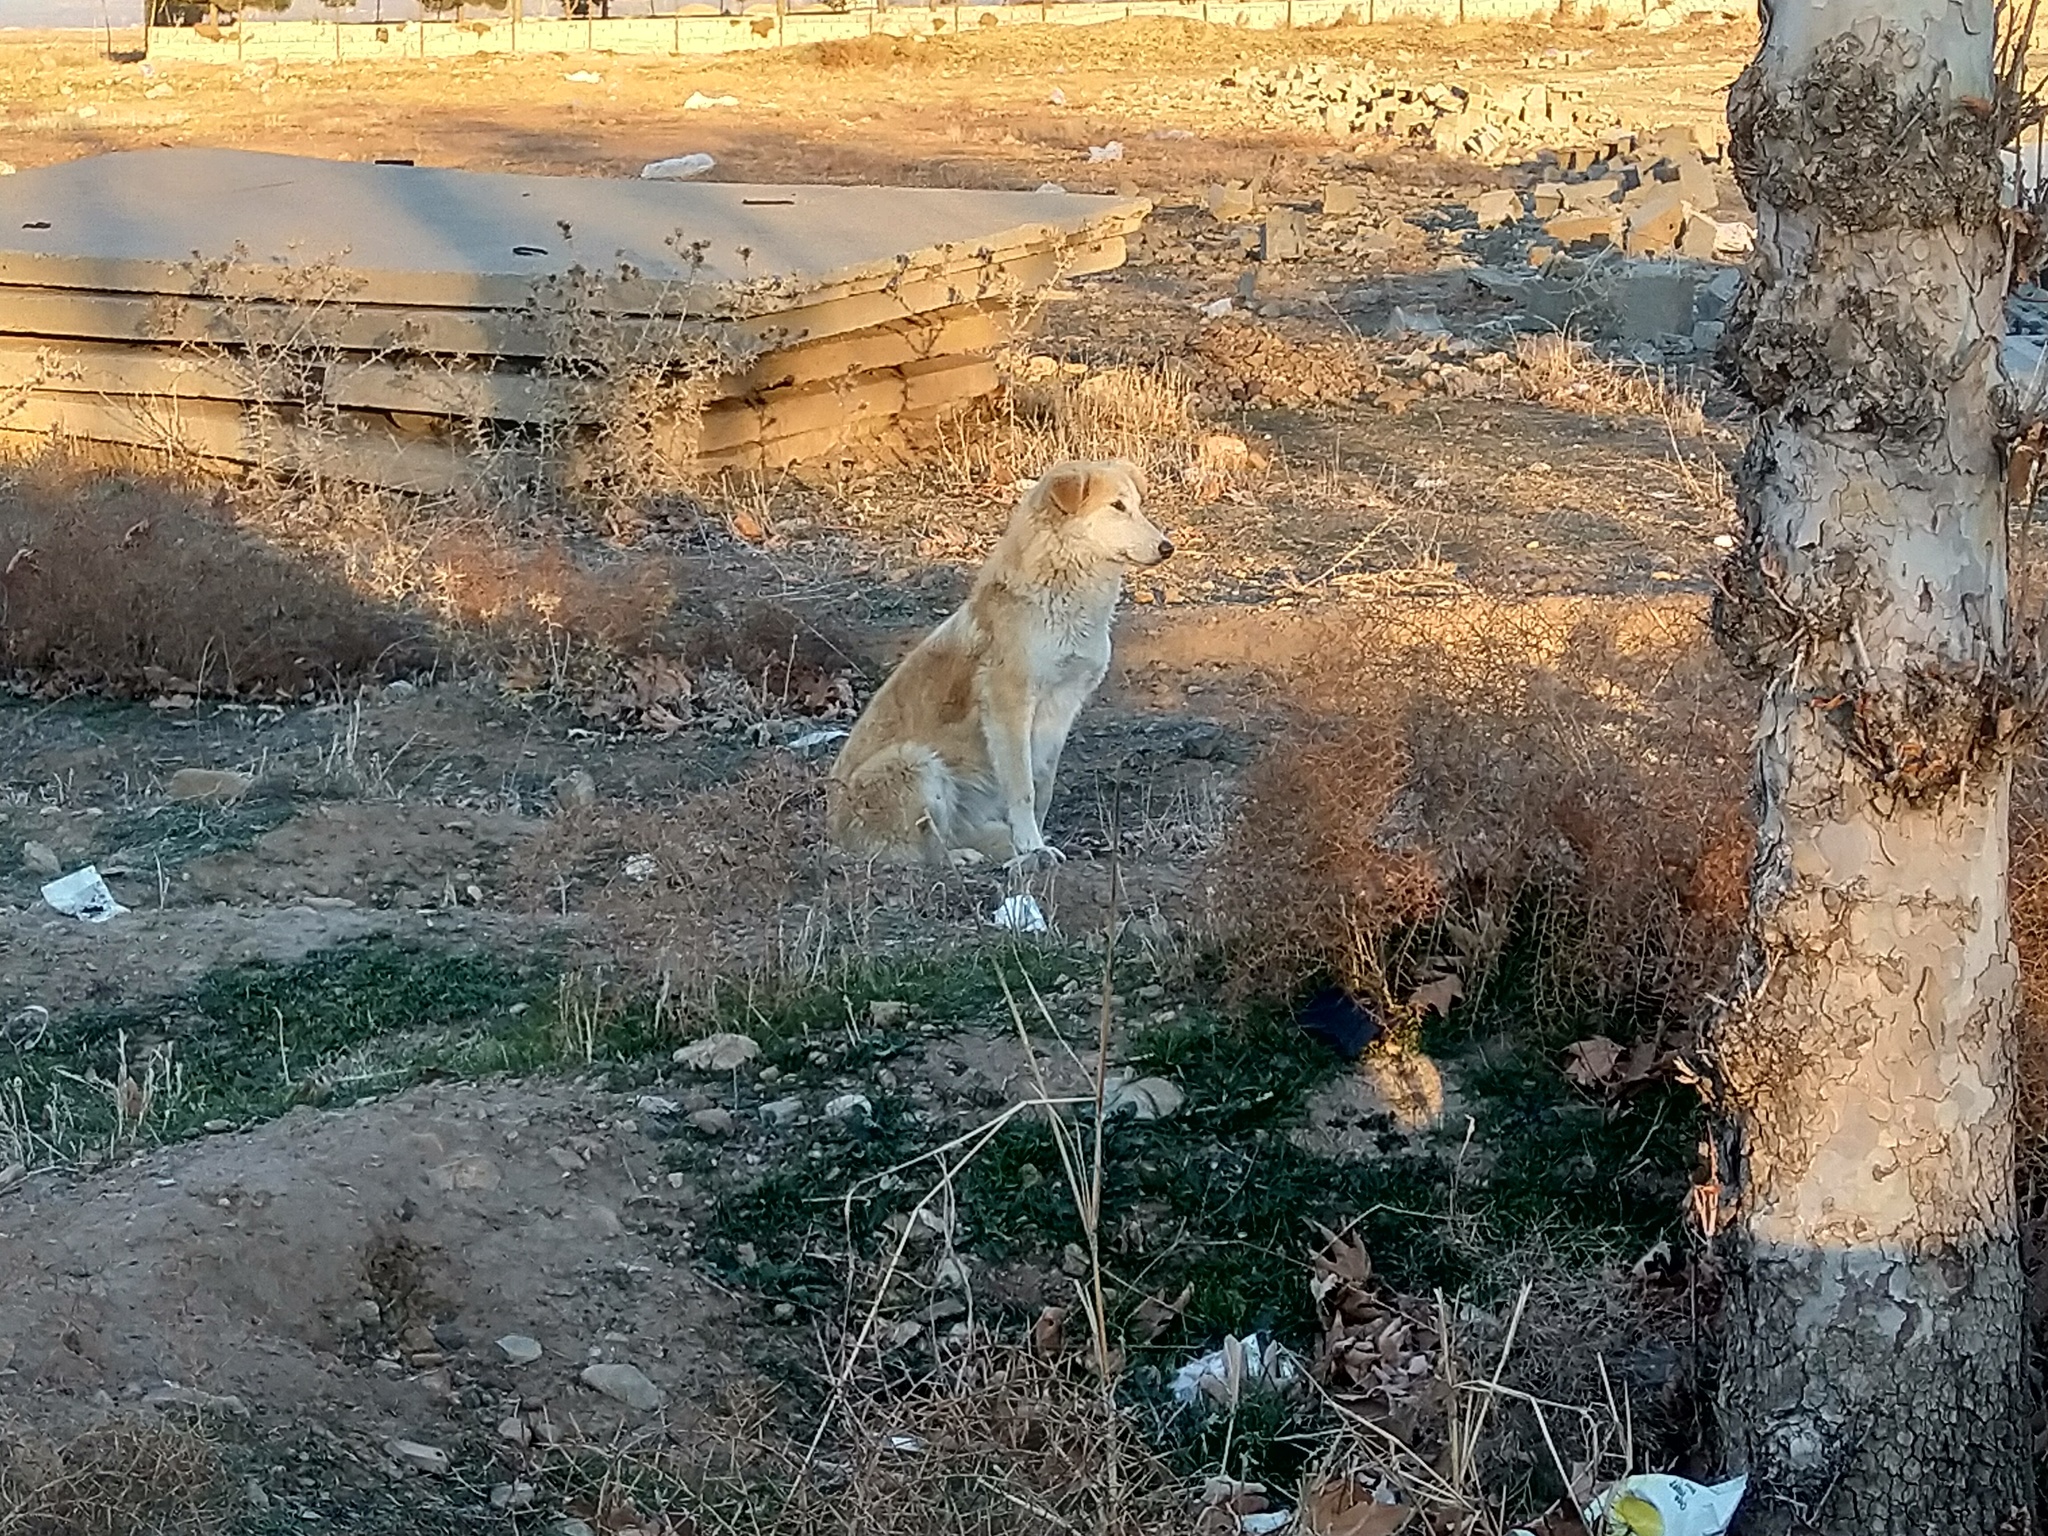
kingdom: Animalia
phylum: Chordata
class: Mammalia
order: Carnivora
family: Canidae
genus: Canis
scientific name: Canis lupus
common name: Gray wolf
